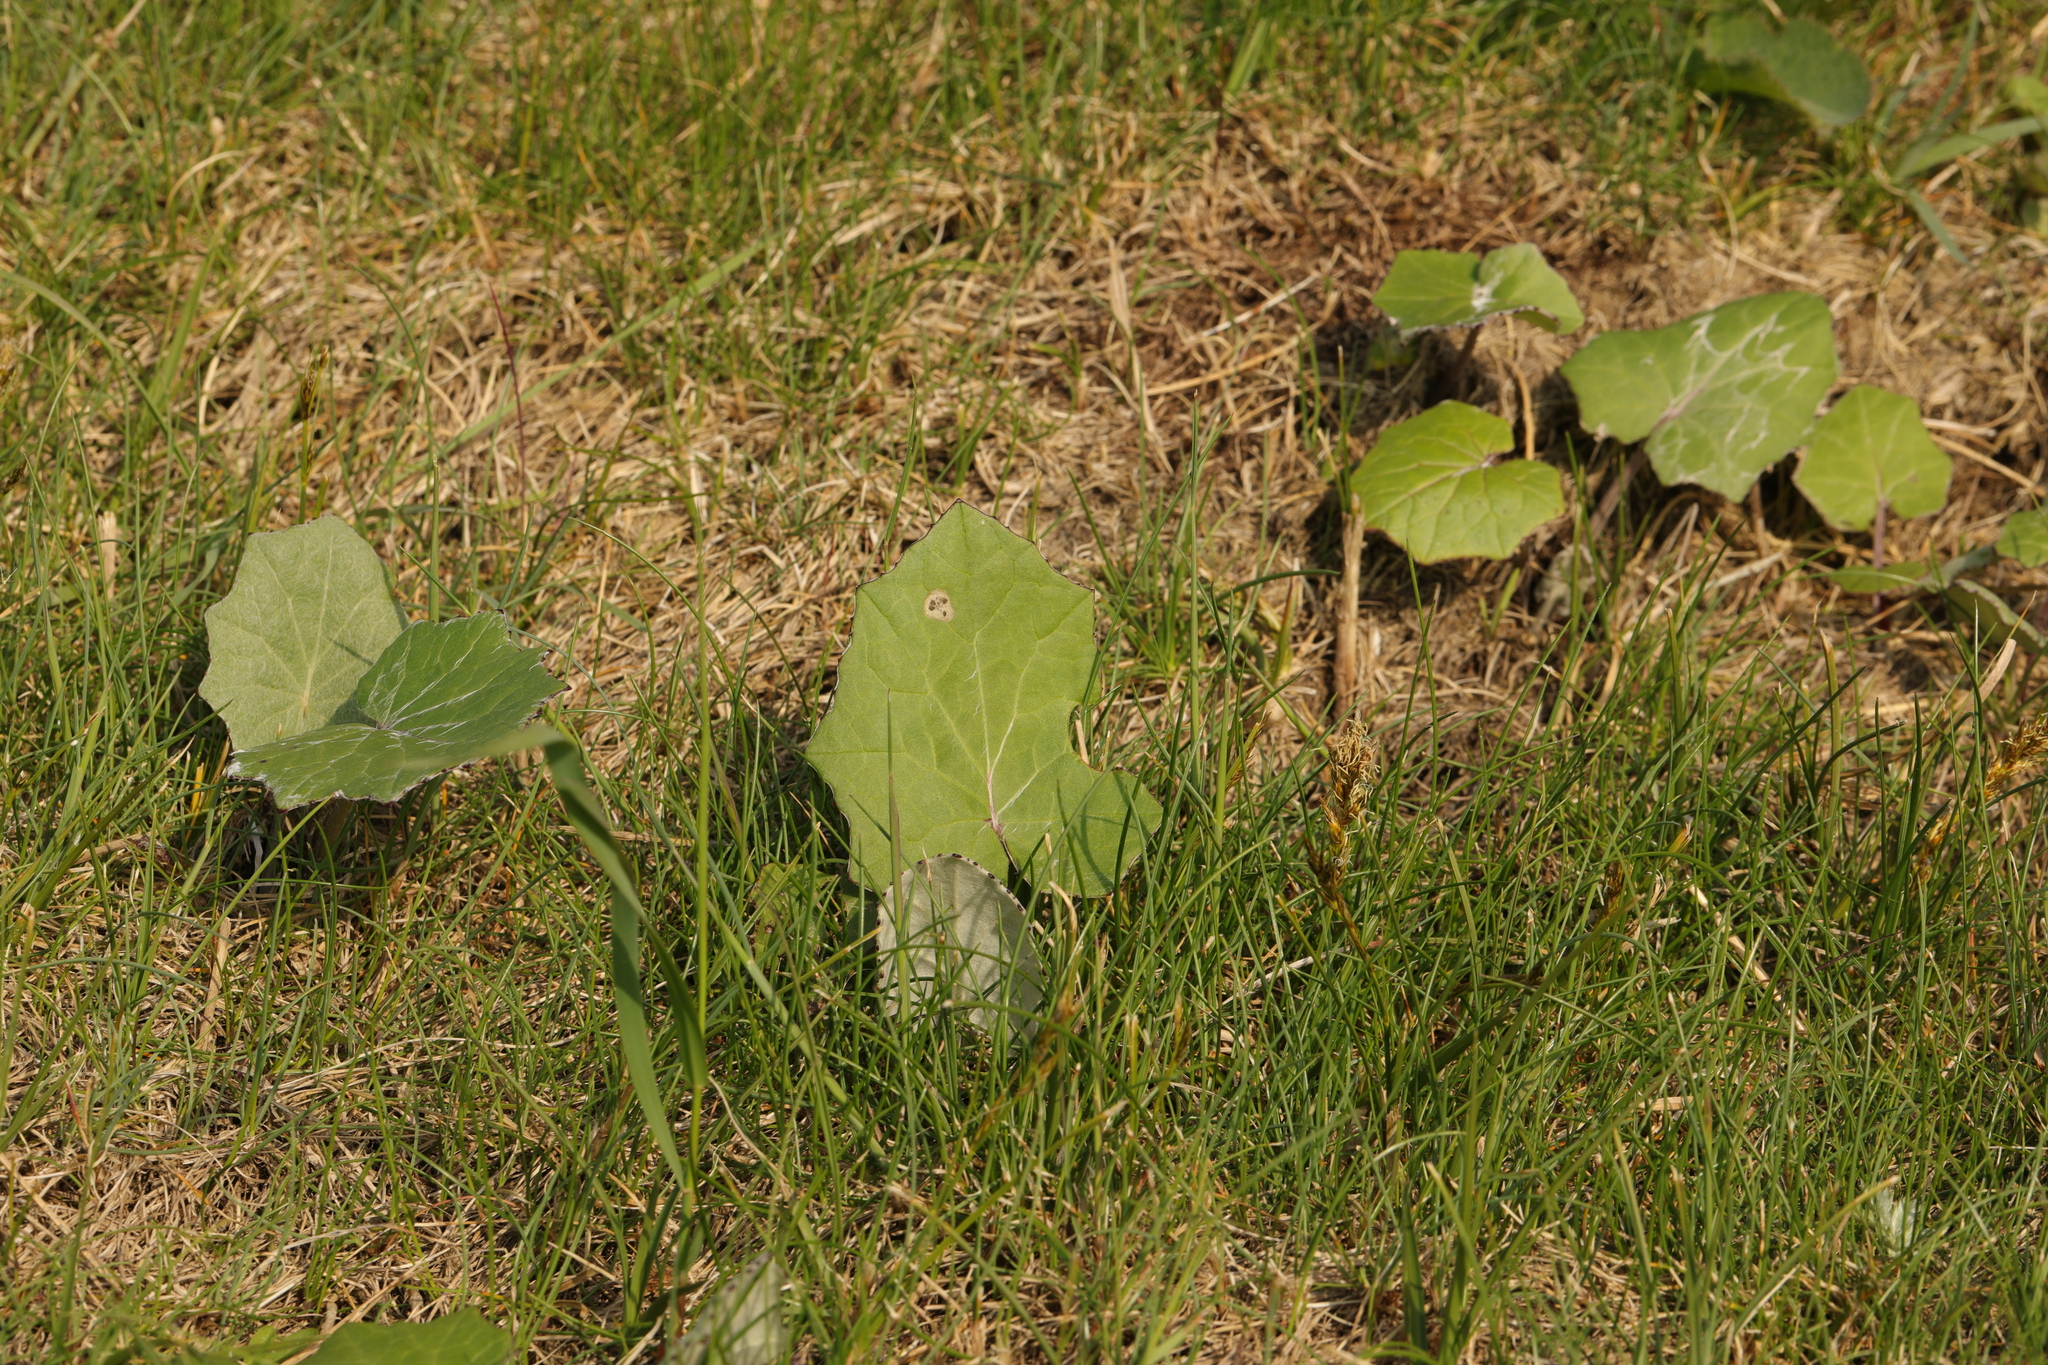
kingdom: Plantae
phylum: Tracheophyta
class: Magnoliopsida
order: Asterales
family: Asteraceae
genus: Tussilago
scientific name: Tussilago farfara
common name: Coltsfoot
